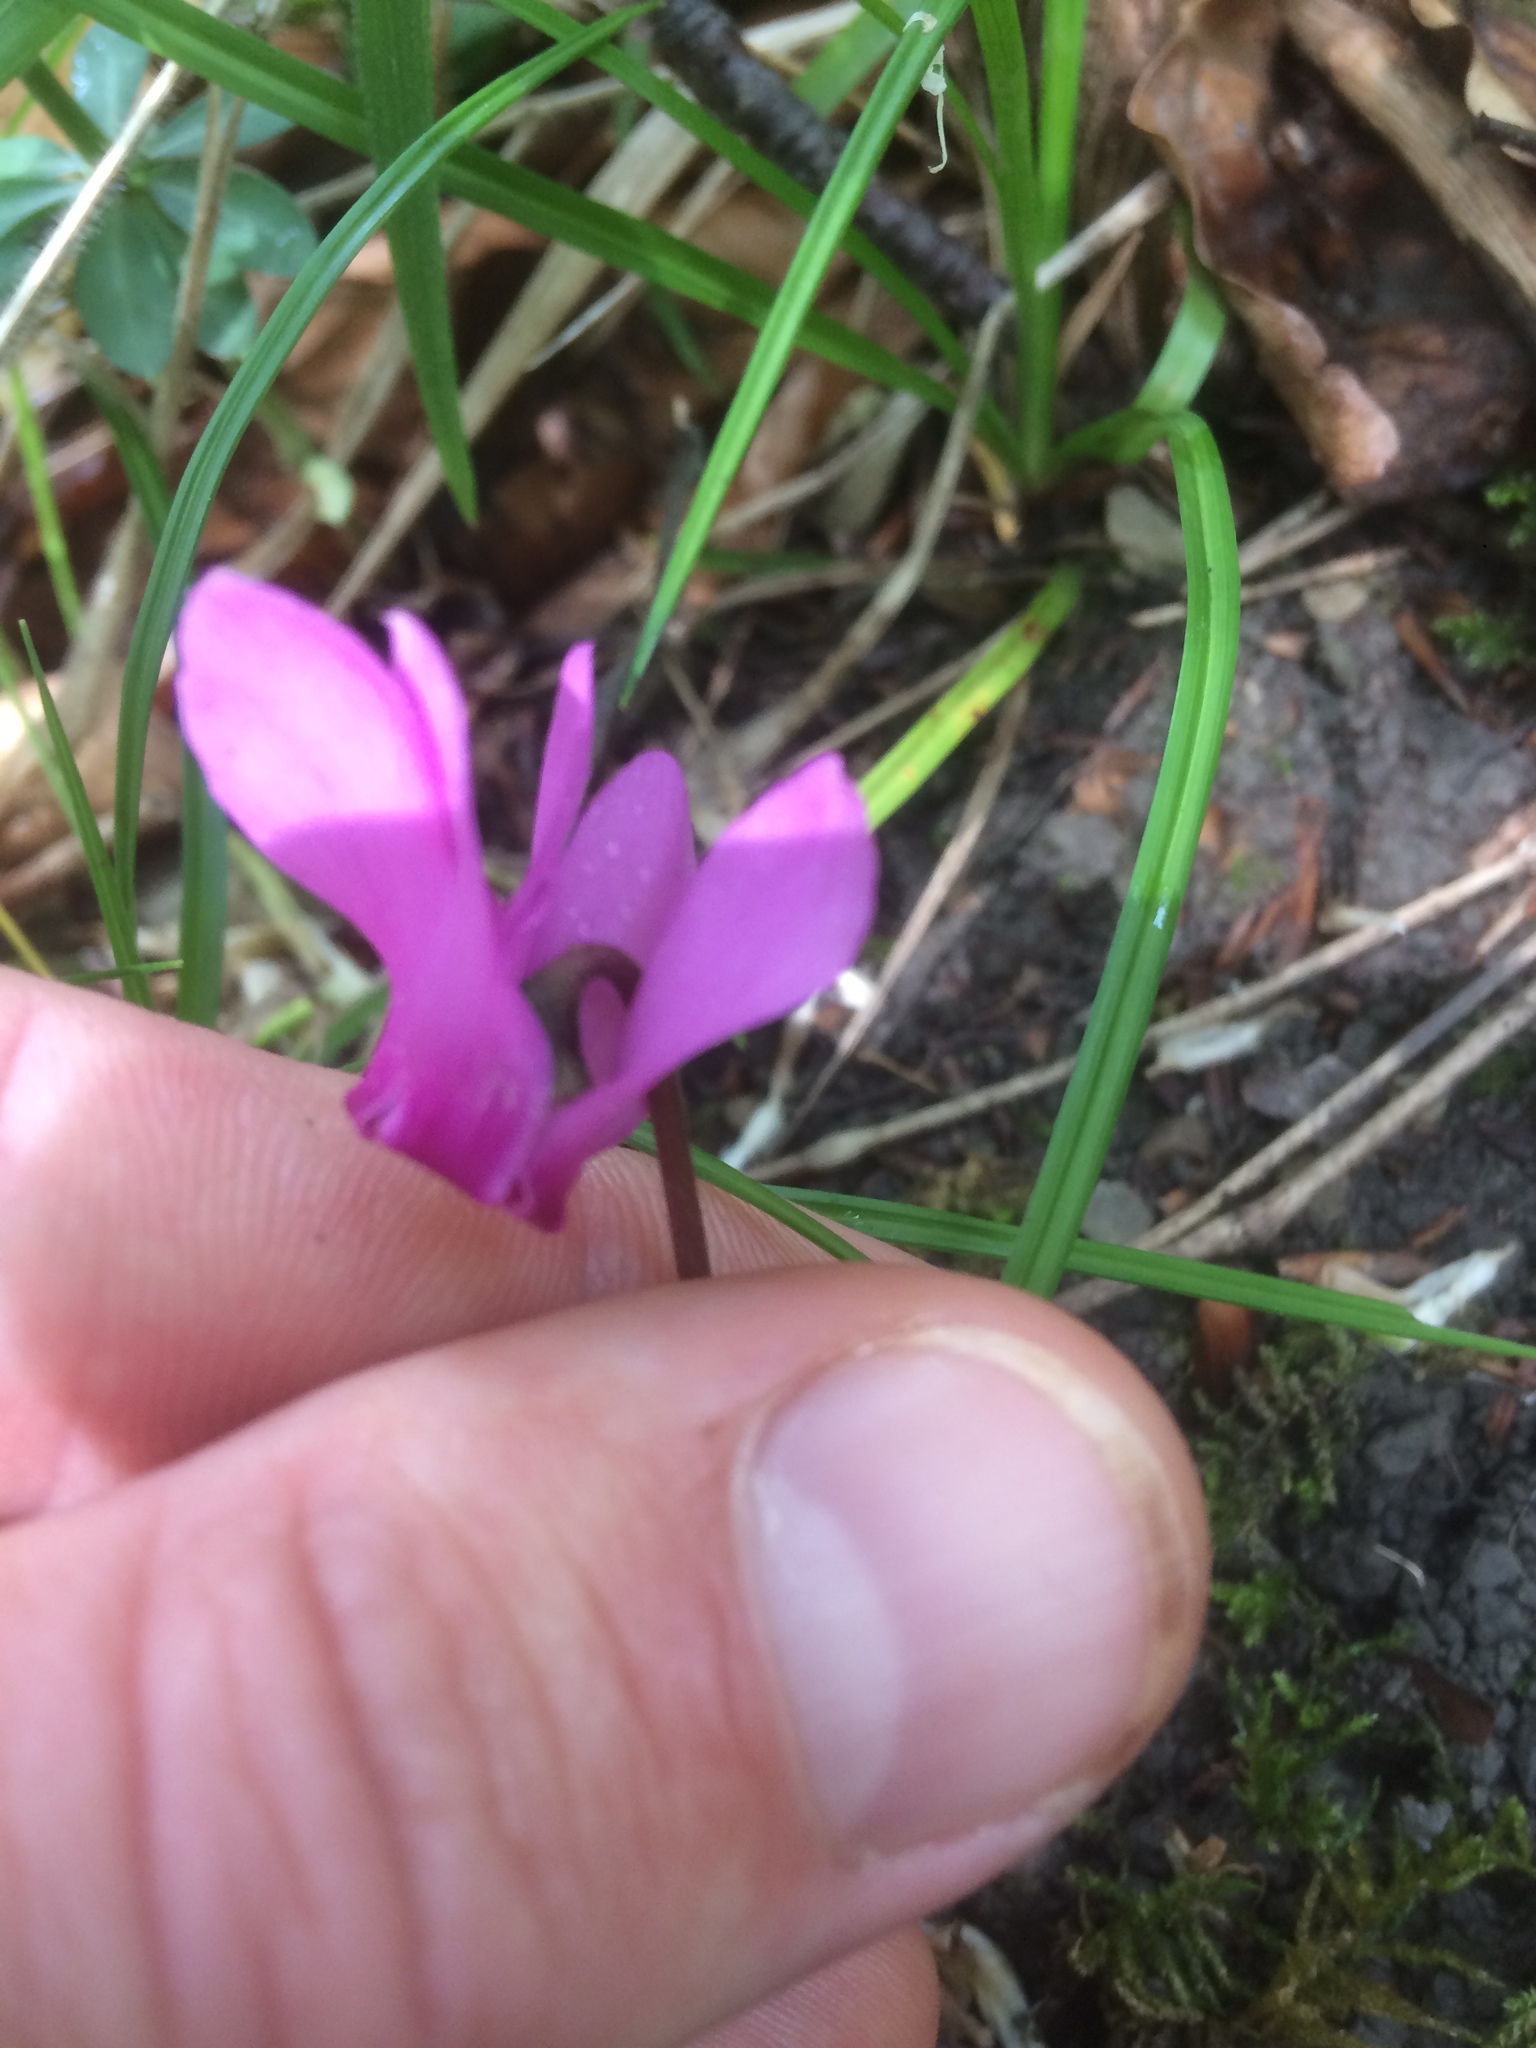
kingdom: Plantae
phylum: Tracheophyta
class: Magnoliopsida
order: Ericales
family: Primulaceae
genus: Cyclamen
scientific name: Cyclamen purpurascens
